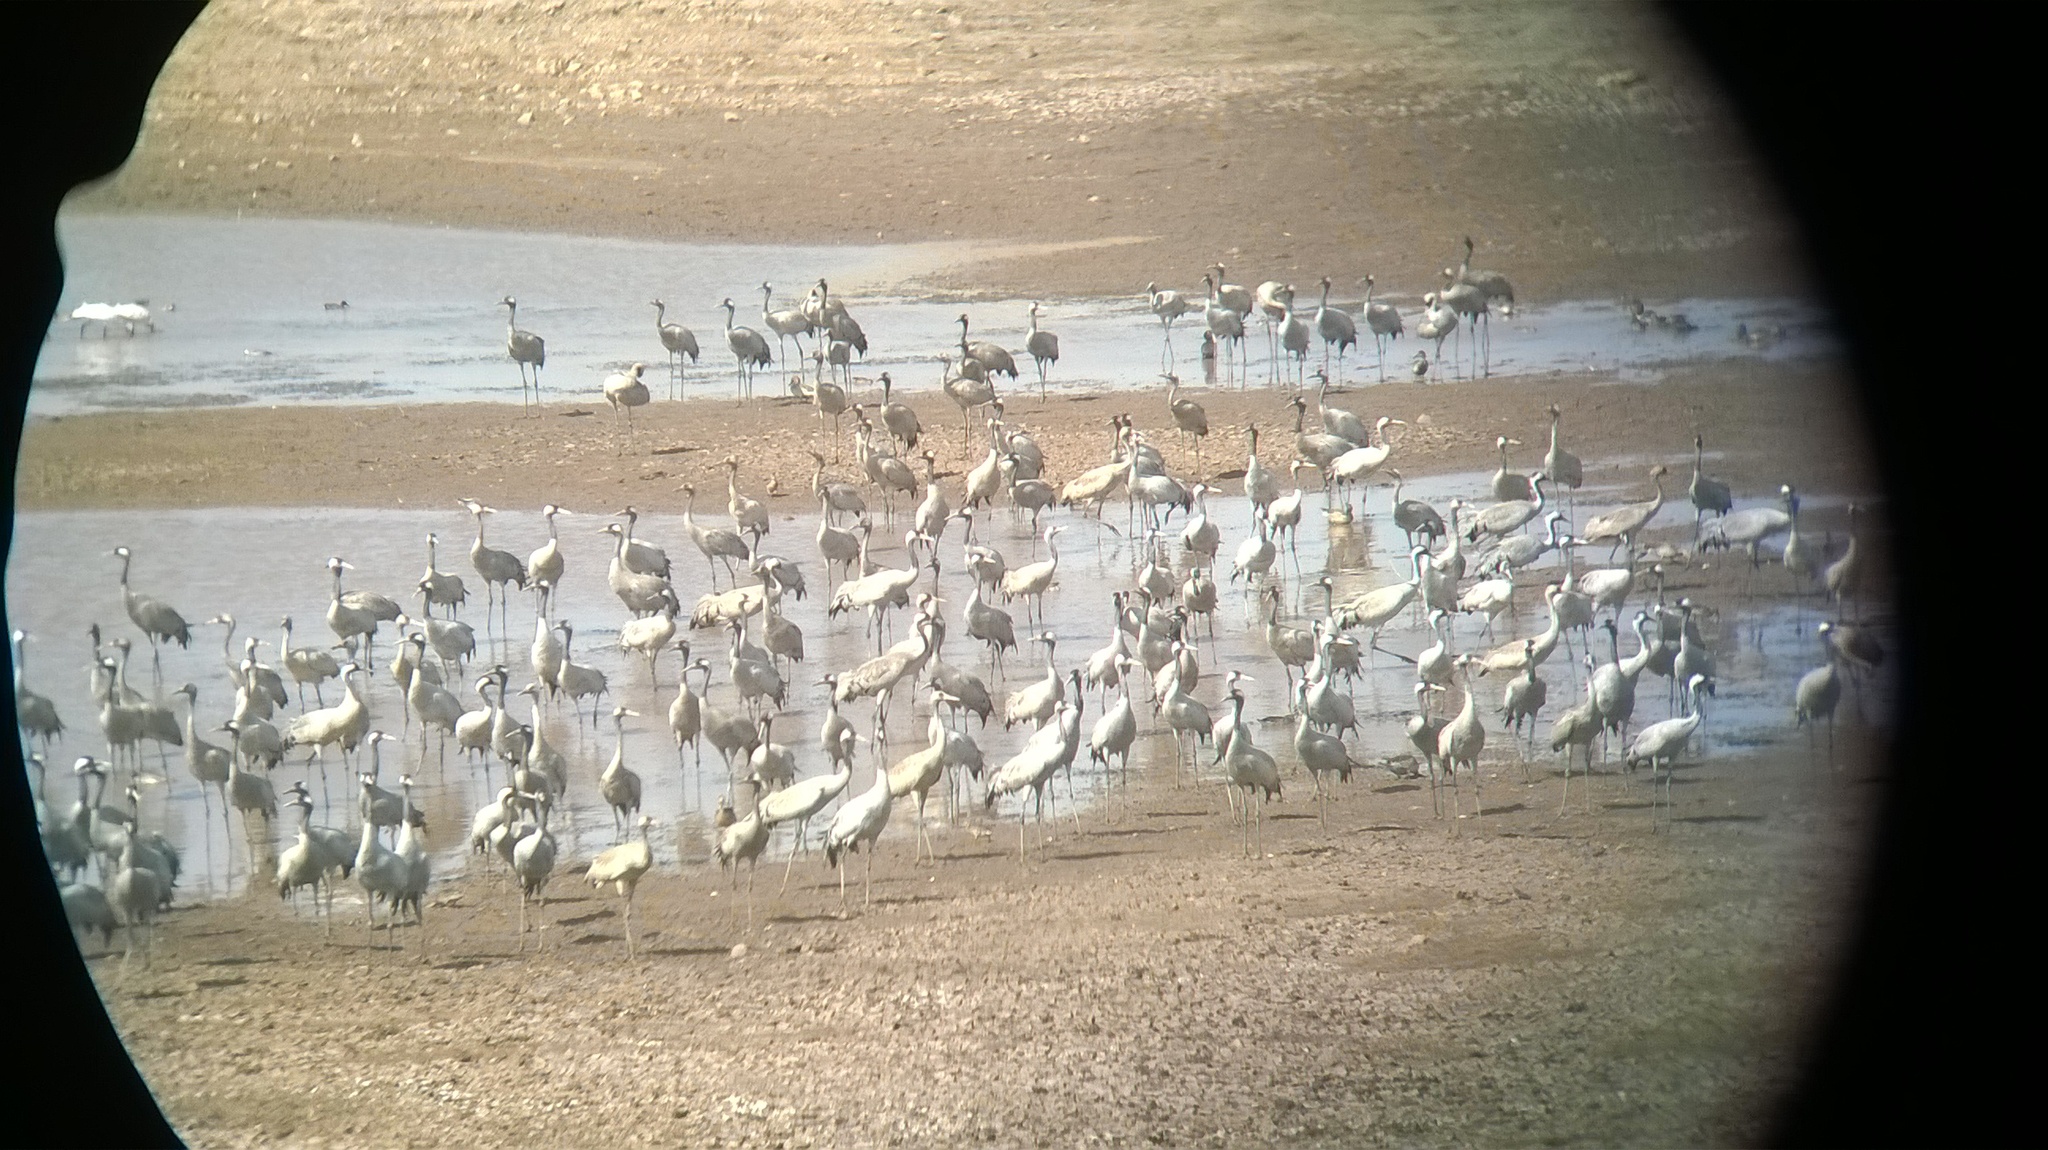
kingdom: Animalia
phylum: Chordata
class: Aves
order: Gruiformes
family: Gruidae
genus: Grus
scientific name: Grus grus
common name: Common crane
